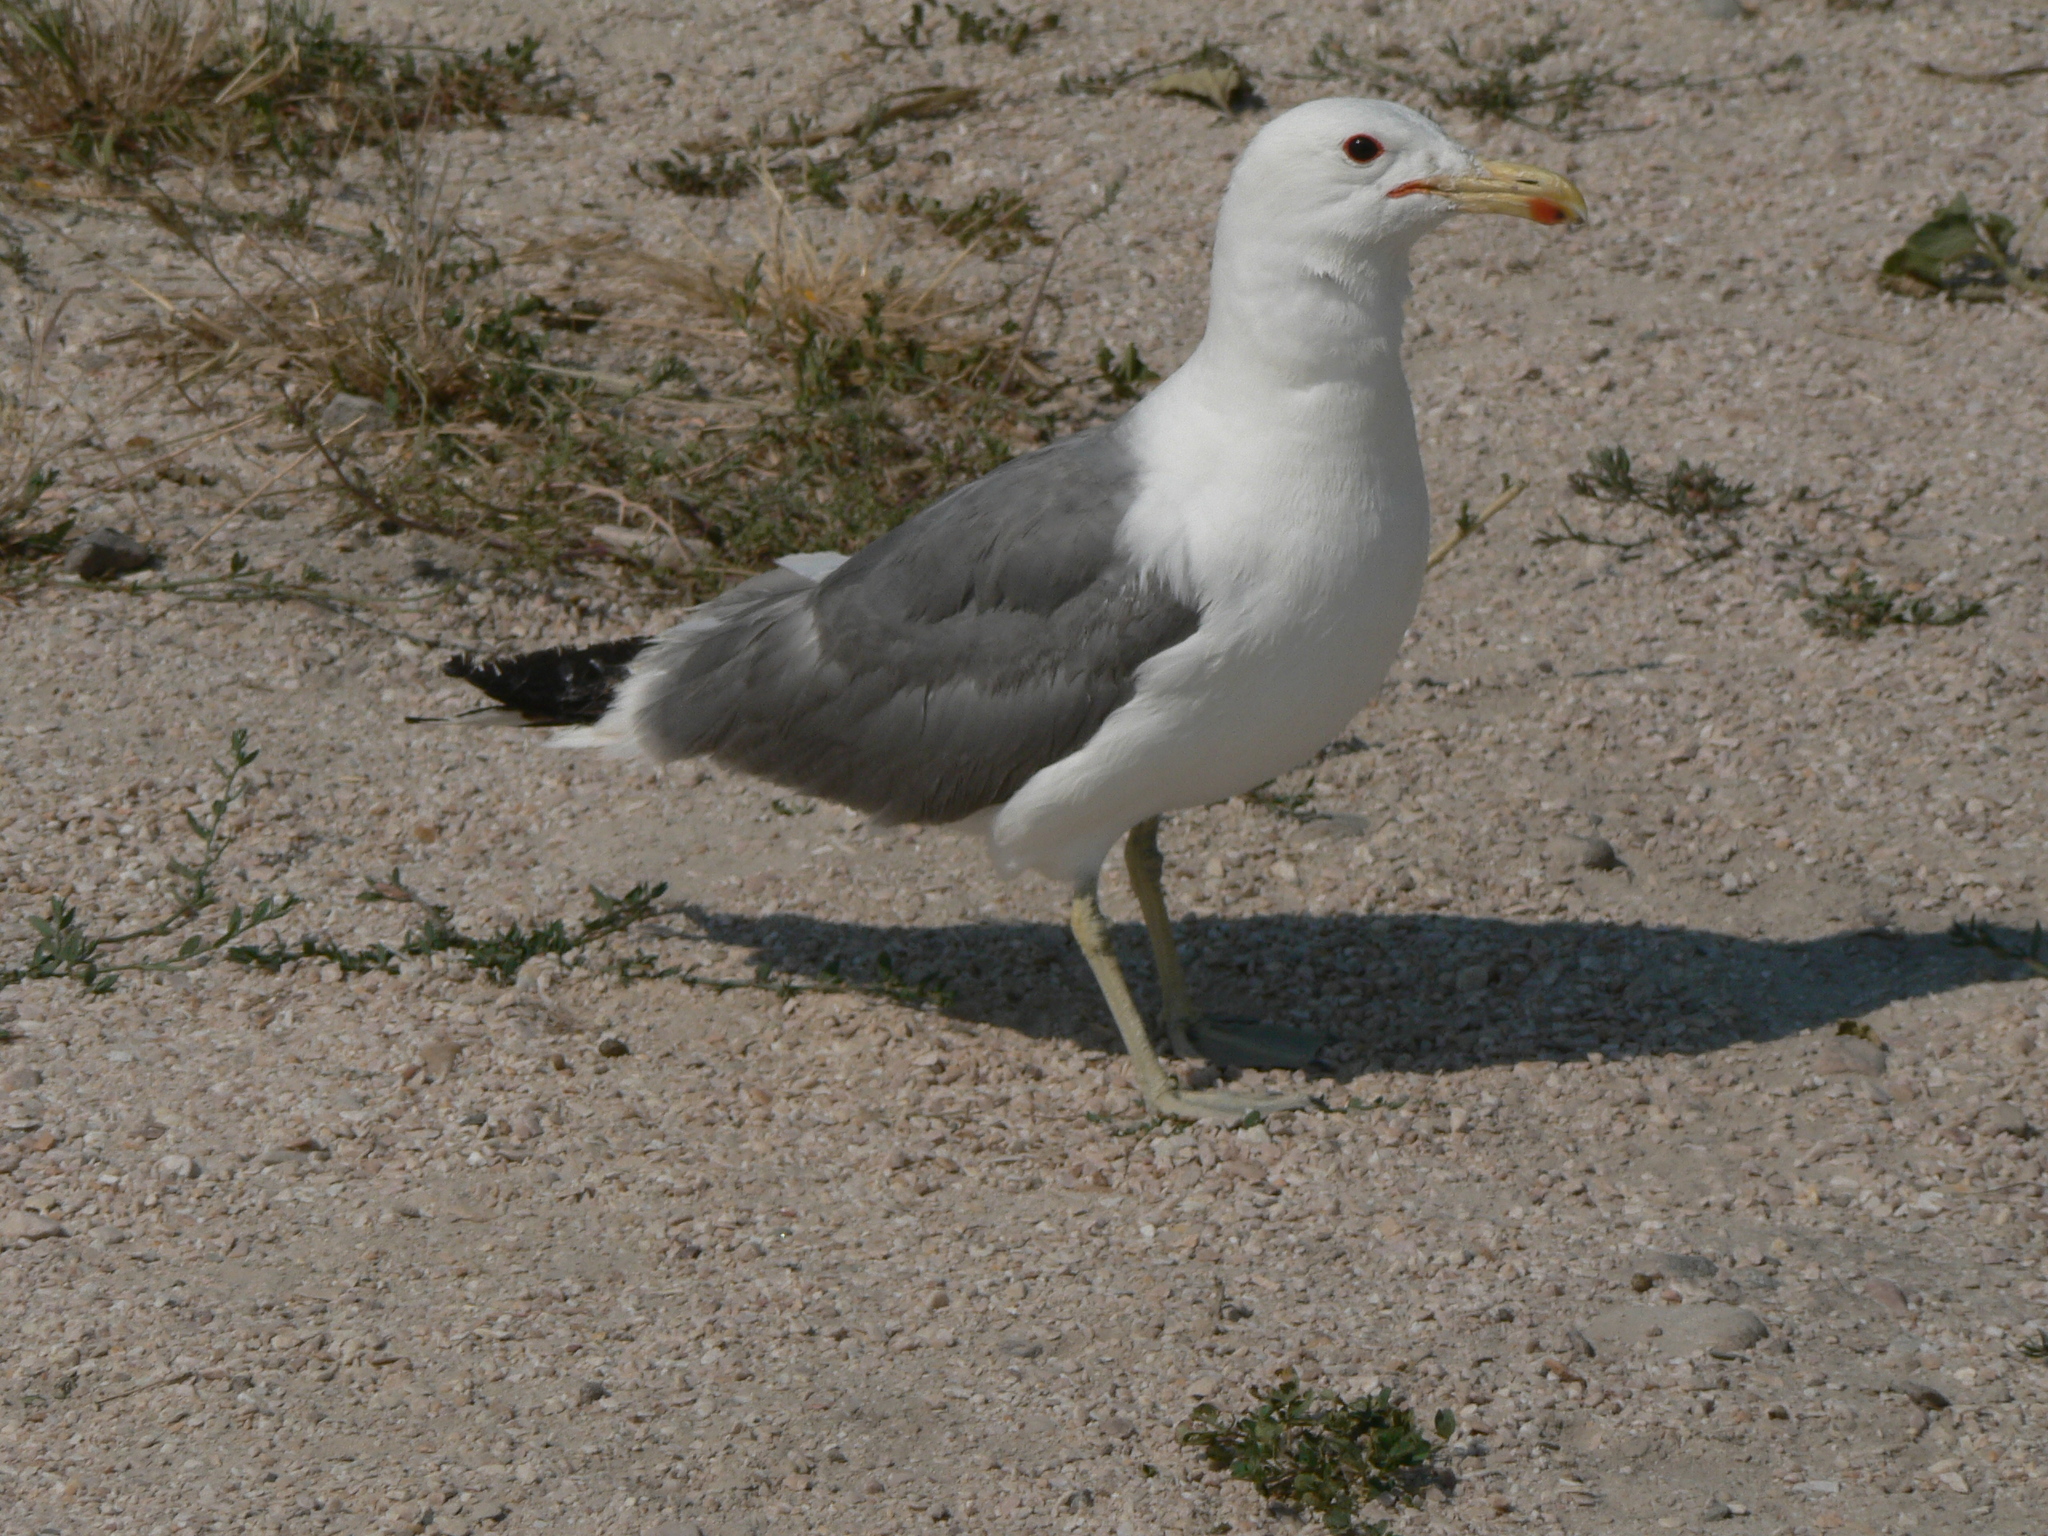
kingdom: Animalia
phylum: Chordata
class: Aves
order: Charadriiformes
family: Laridae
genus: Larus
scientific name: Larus californicus
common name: California gull
